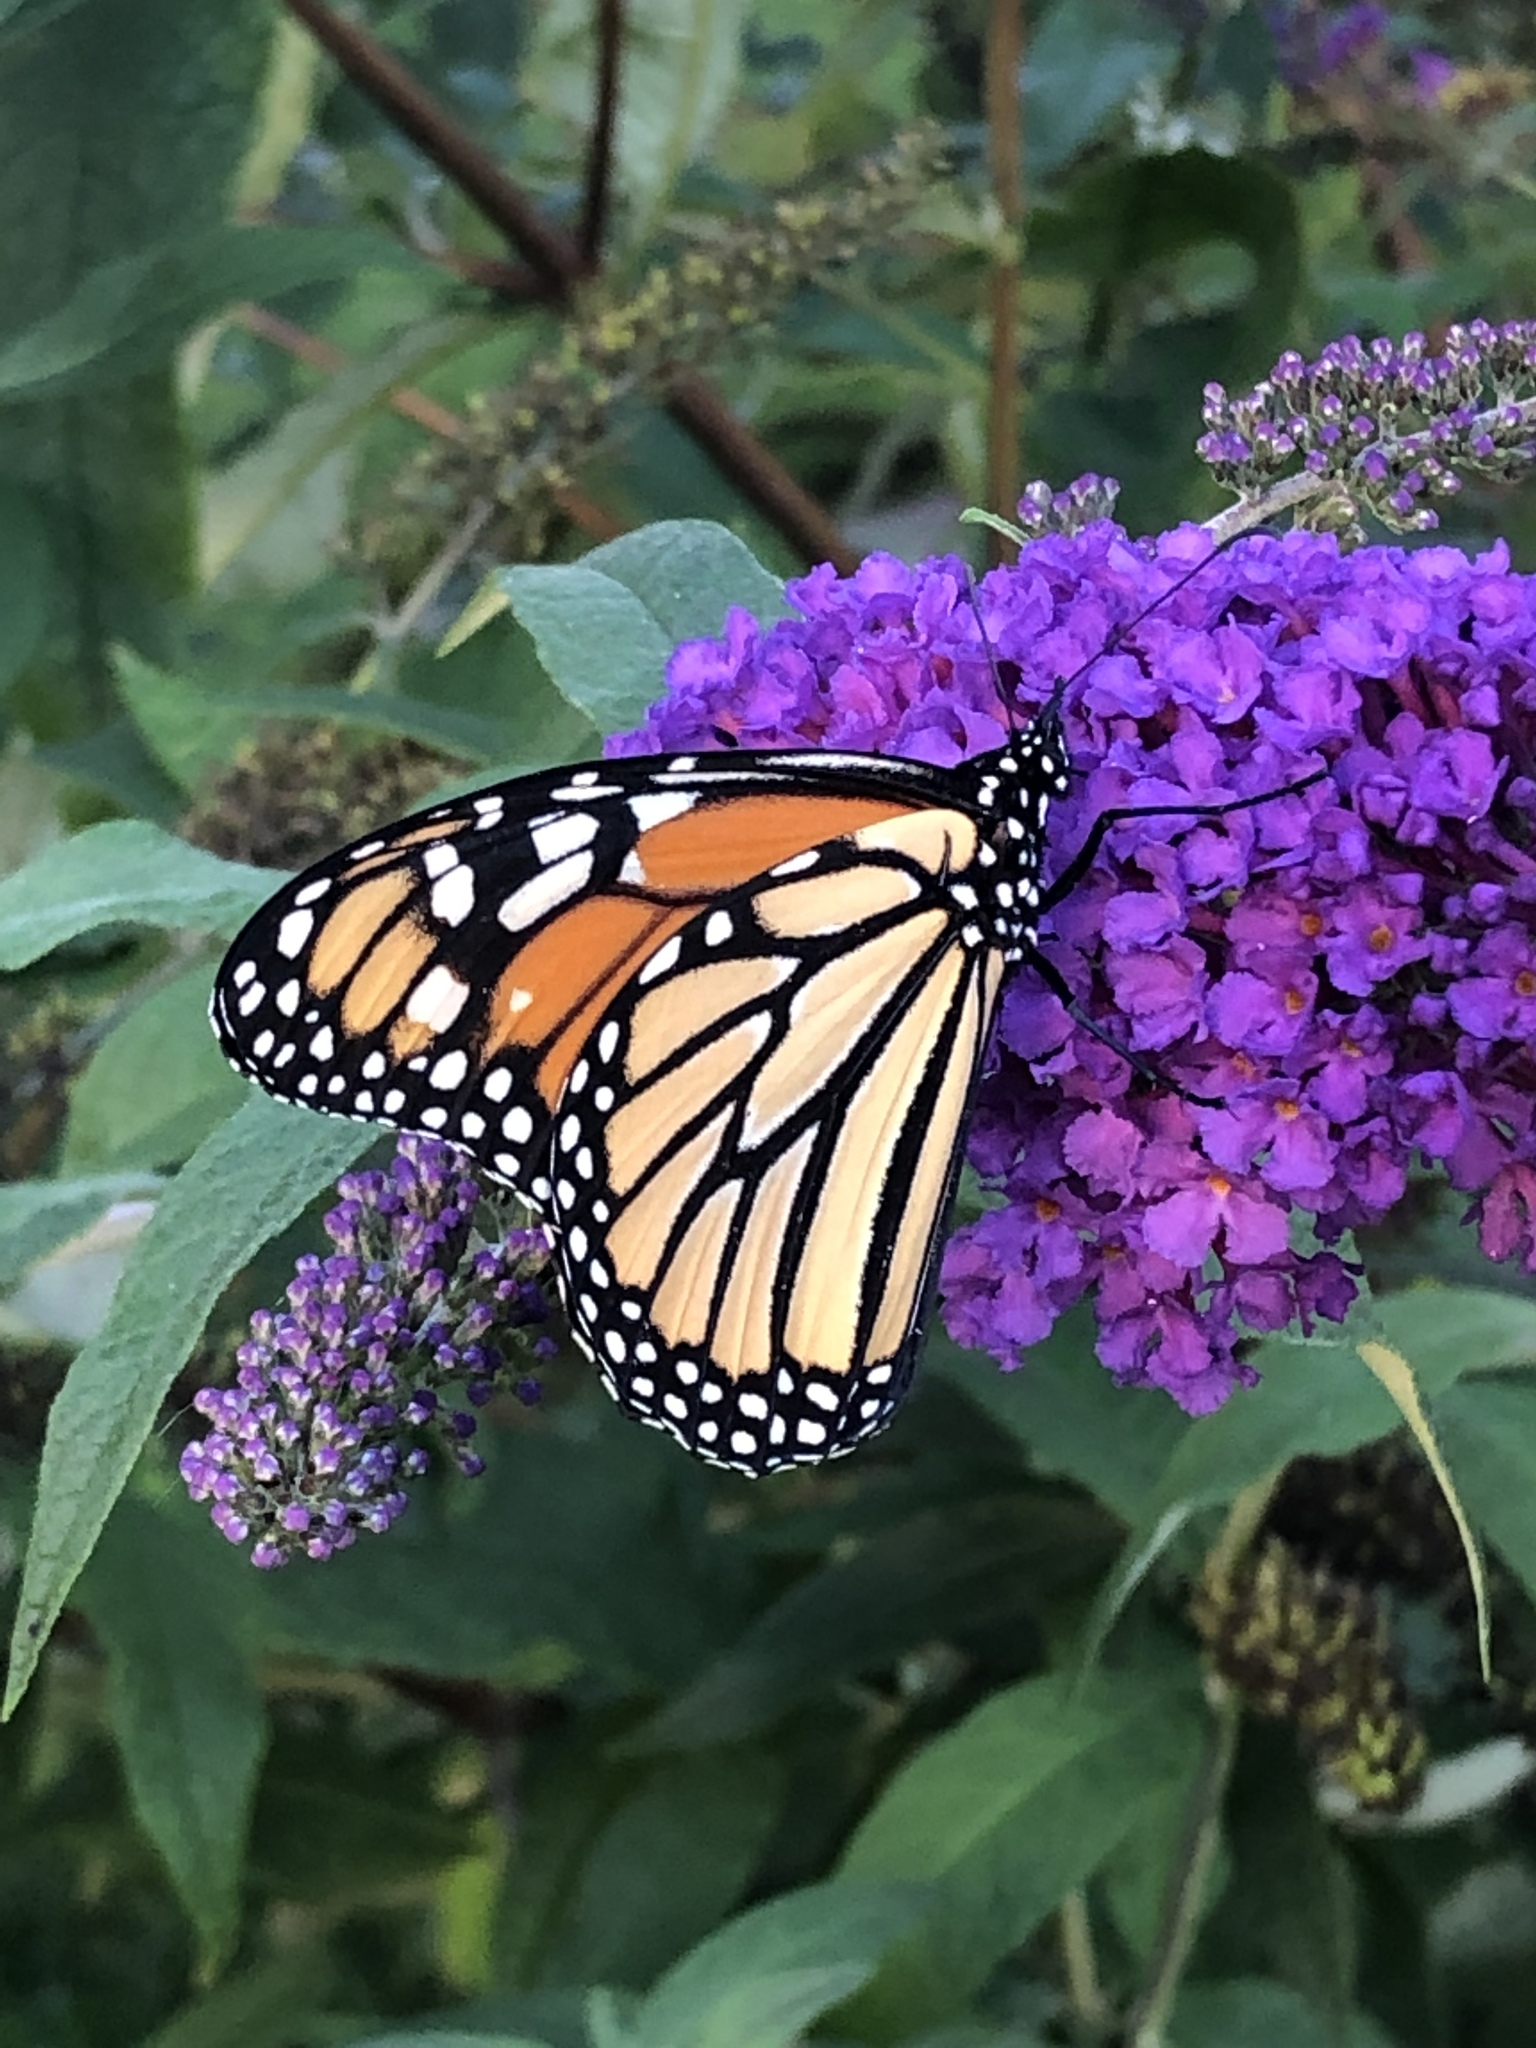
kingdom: Animalia
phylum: Arthropoda
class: Insecta
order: Lepidoptera
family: Nymphalidae
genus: Danaus
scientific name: Danaus plexippus
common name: Monarch
